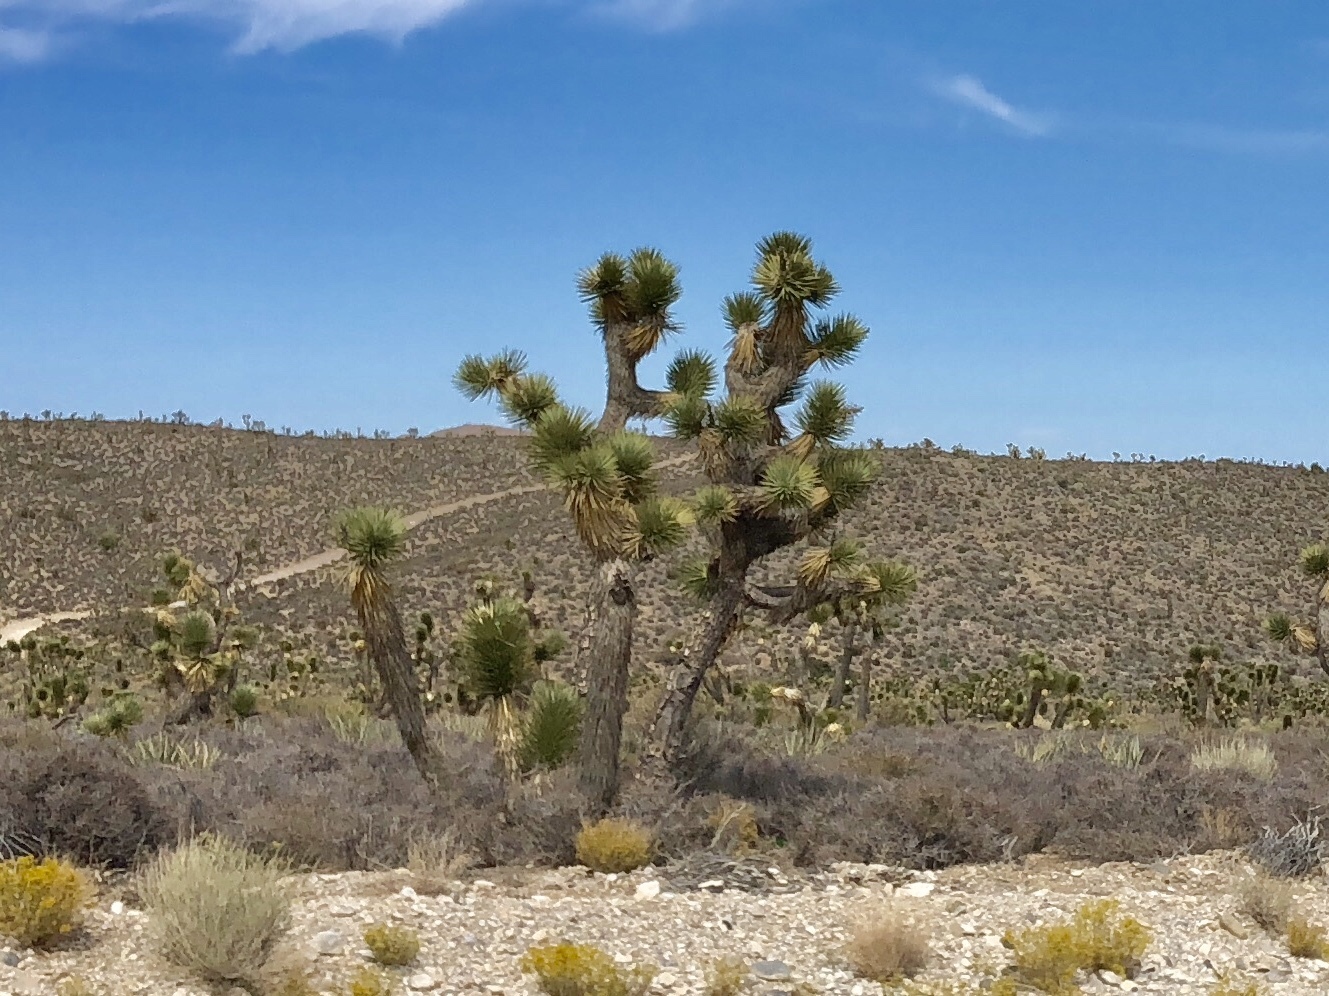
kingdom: Plantae
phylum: Tracheophyta
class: Liliopsida
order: Asparagales
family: Asparagaceae
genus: Yucca
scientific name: Yucca brevifolia
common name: Joshua tree
